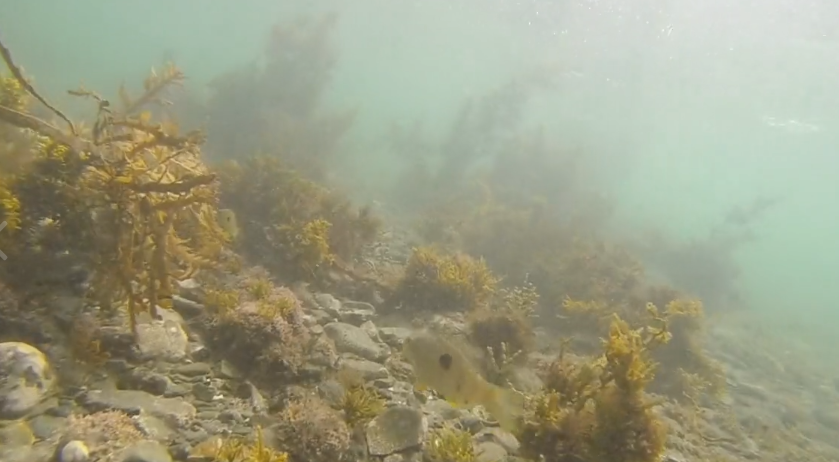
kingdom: Animalia
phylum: Chordata
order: Perciformes
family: Labridae
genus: Notolabrus
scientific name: Notolabrus celidotus
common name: Spotty
